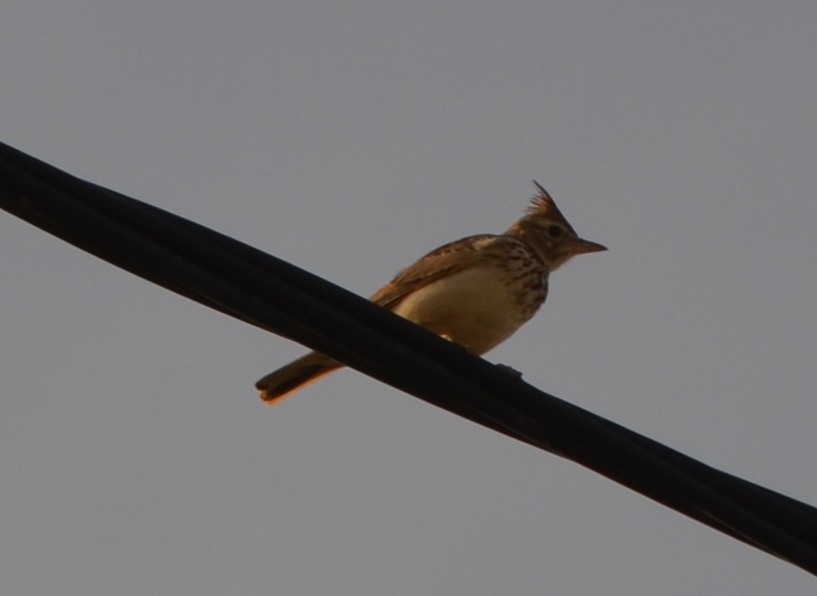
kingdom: Animalia
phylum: Chordata
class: Aves
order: Passeriformes
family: Alaudidae
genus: Galerida
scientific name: Galerida theklae
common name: Thekla lark
